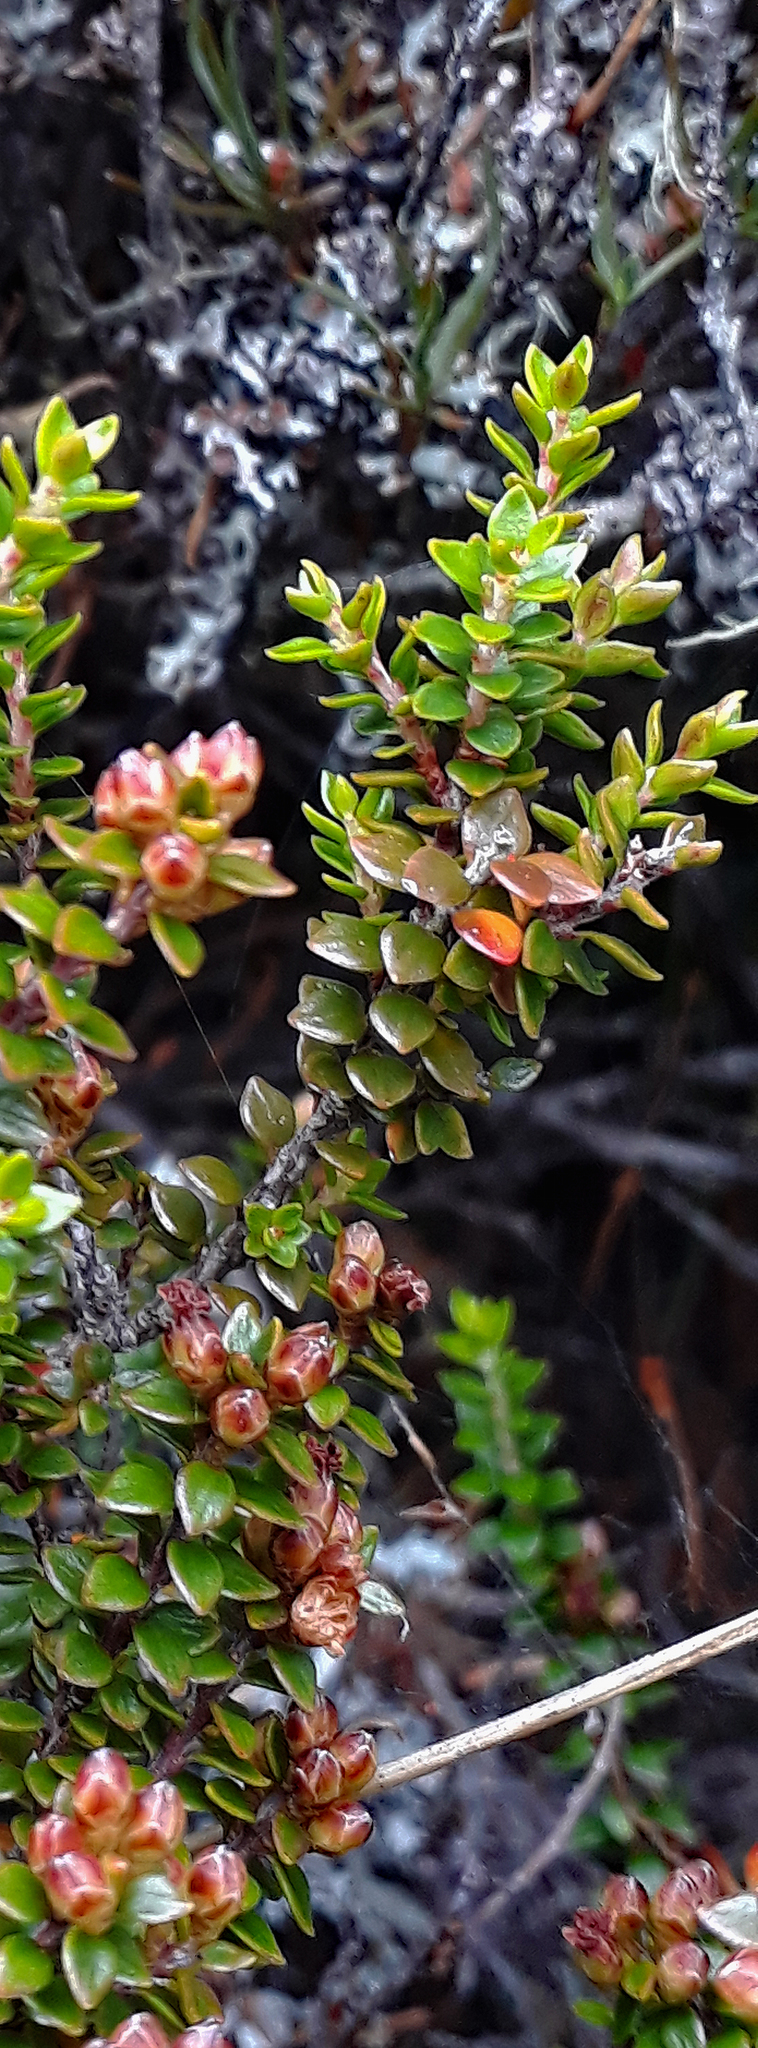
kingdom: Plantae
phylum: Tracheophyta
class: Magnoliopsida
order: Ericales
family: Ericaceae
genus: Epacris
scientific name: Epacris alpina
